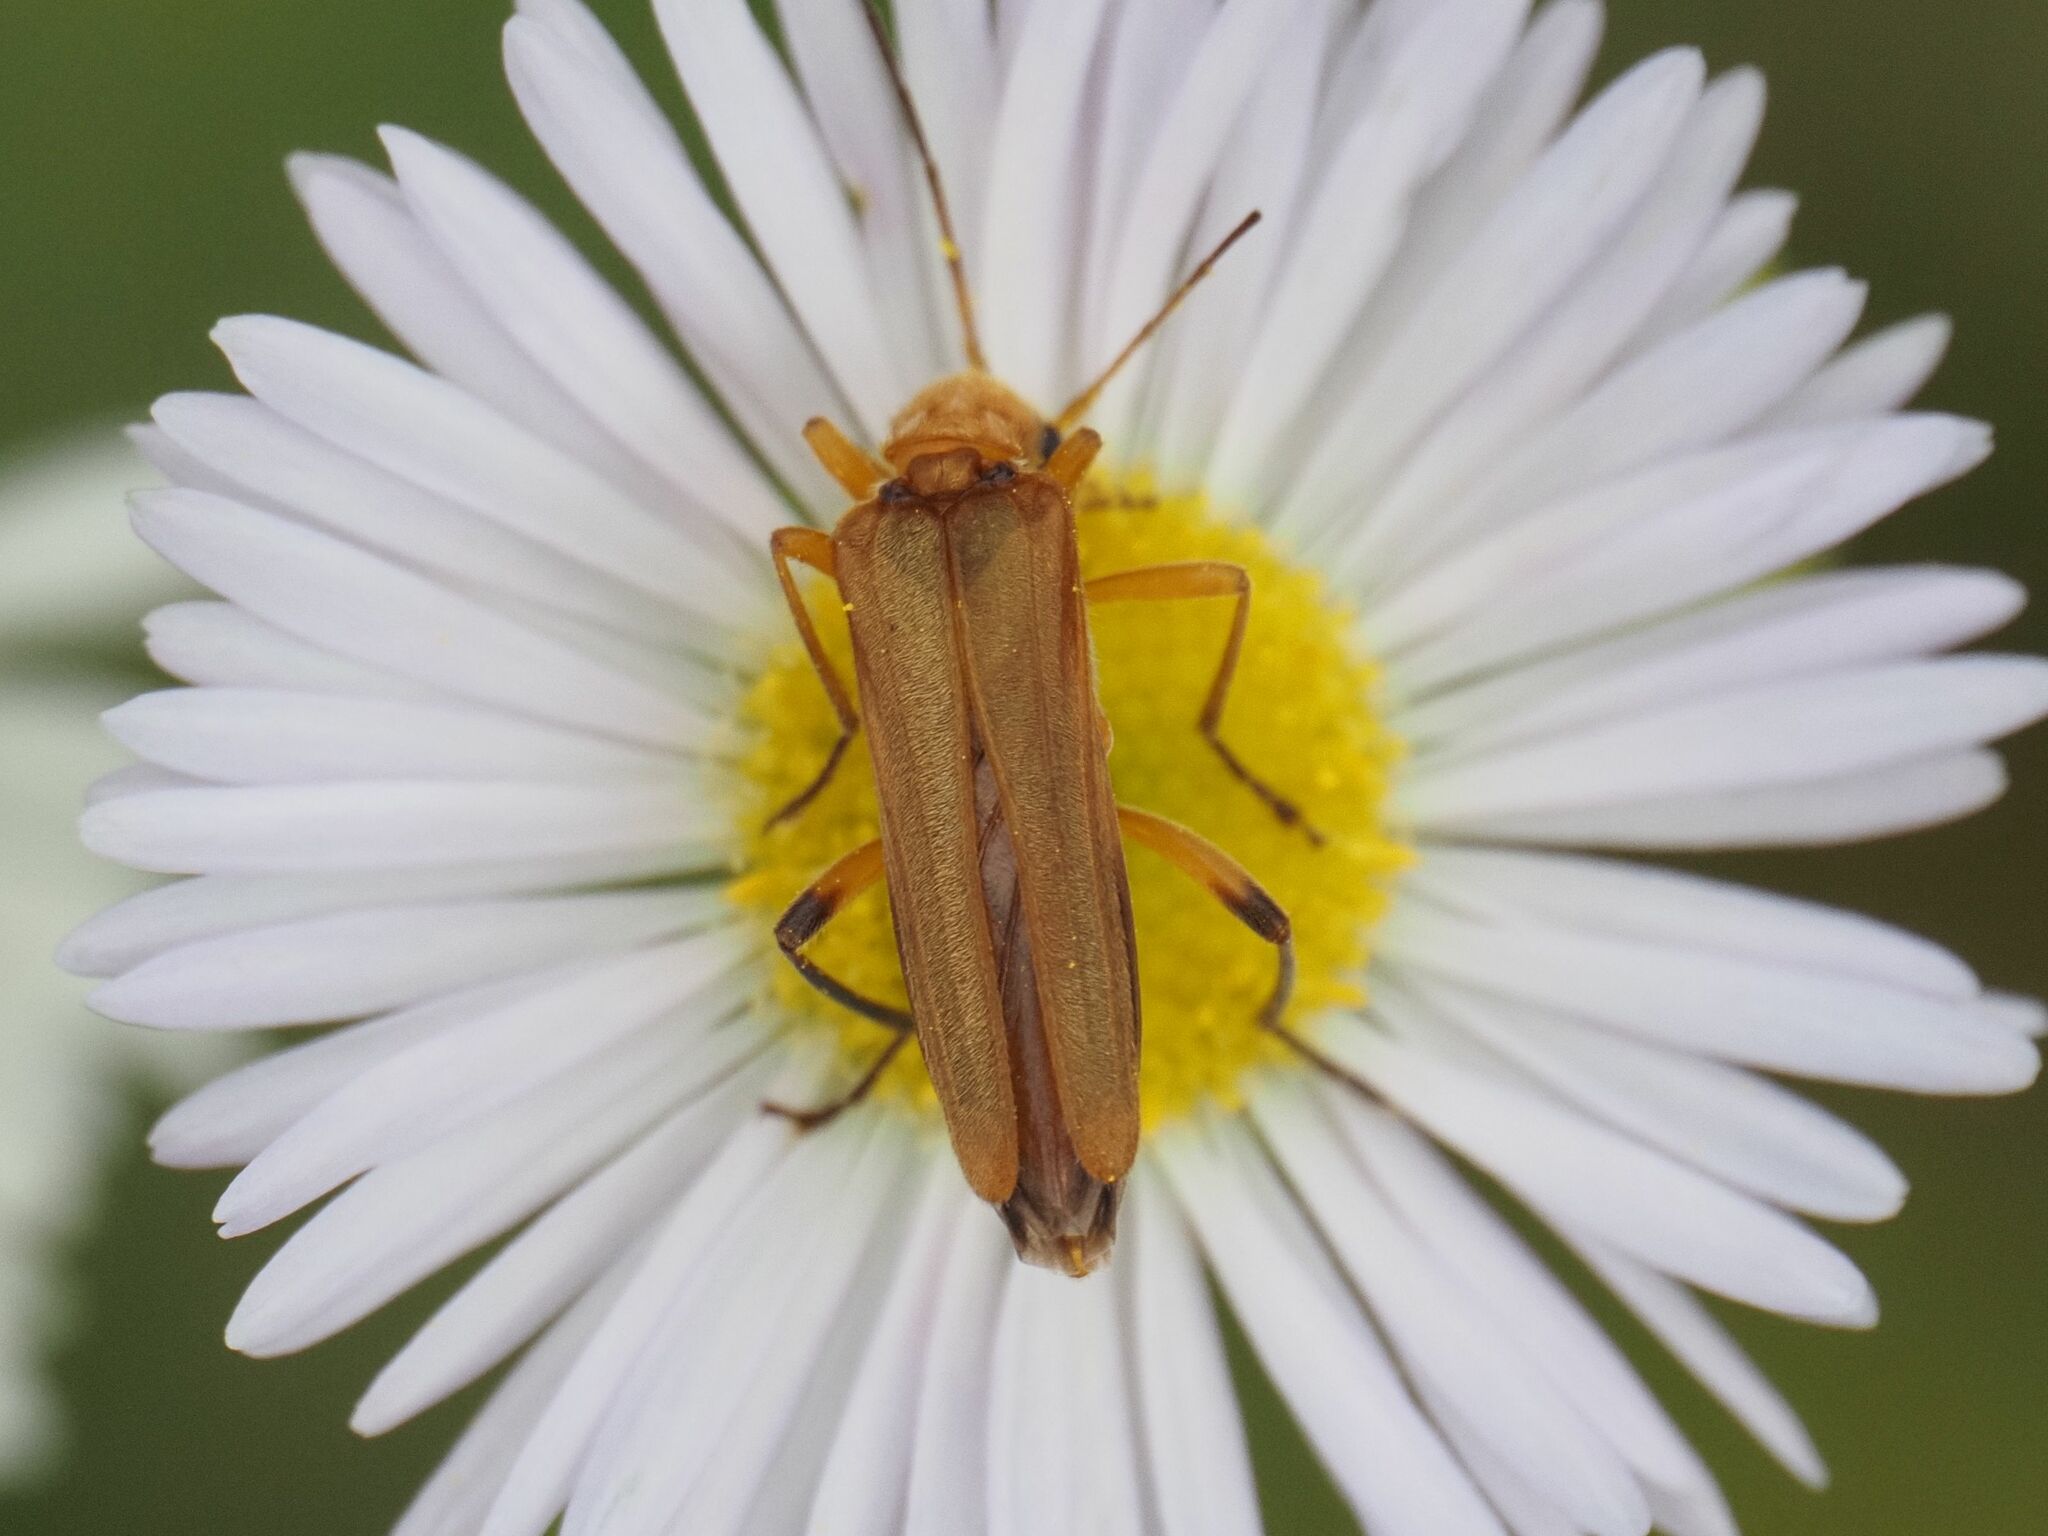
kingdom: Animalia
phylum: Arthropoda
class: Insecta
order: Coleoptera
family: Oedemeridae
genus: Oedemera
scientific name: Oedemera podagrariae
